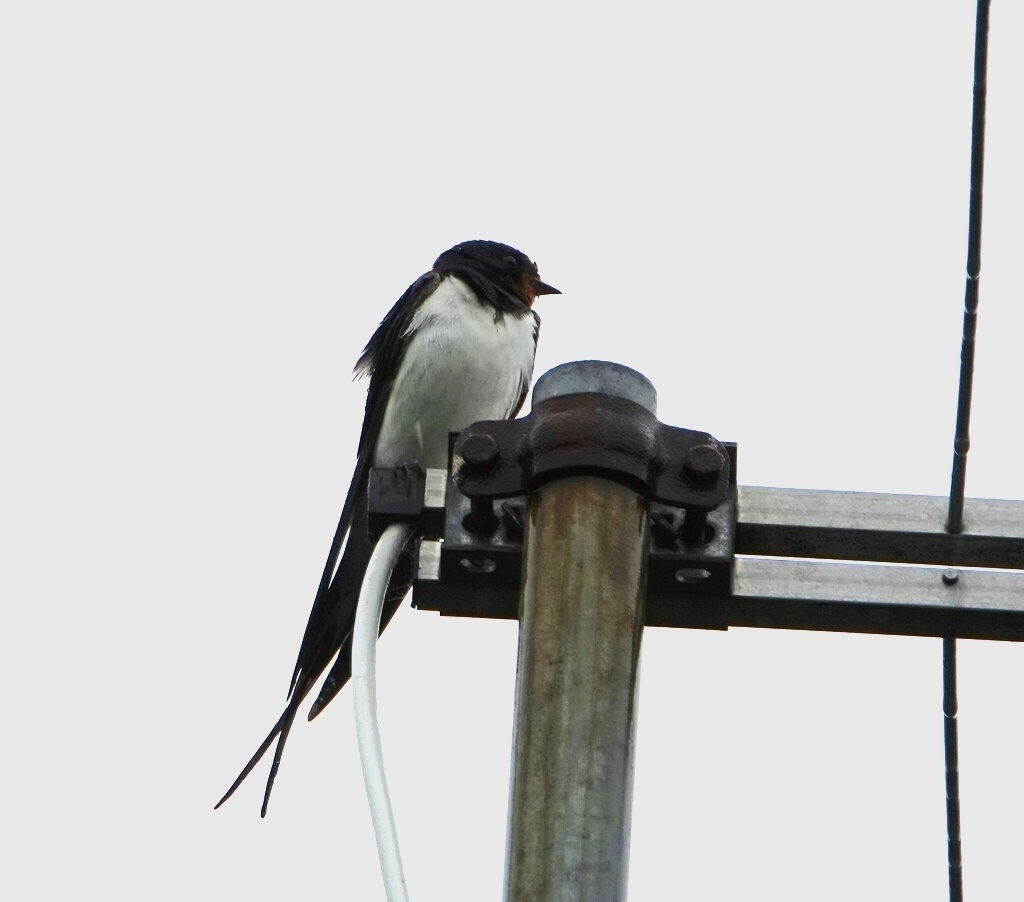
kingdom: Animalia
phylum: Chordata
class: Aves
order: Passeriformes
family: Hirundinidae
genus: Hirundo
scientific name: Hirundo rustica
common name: Barn swallow
